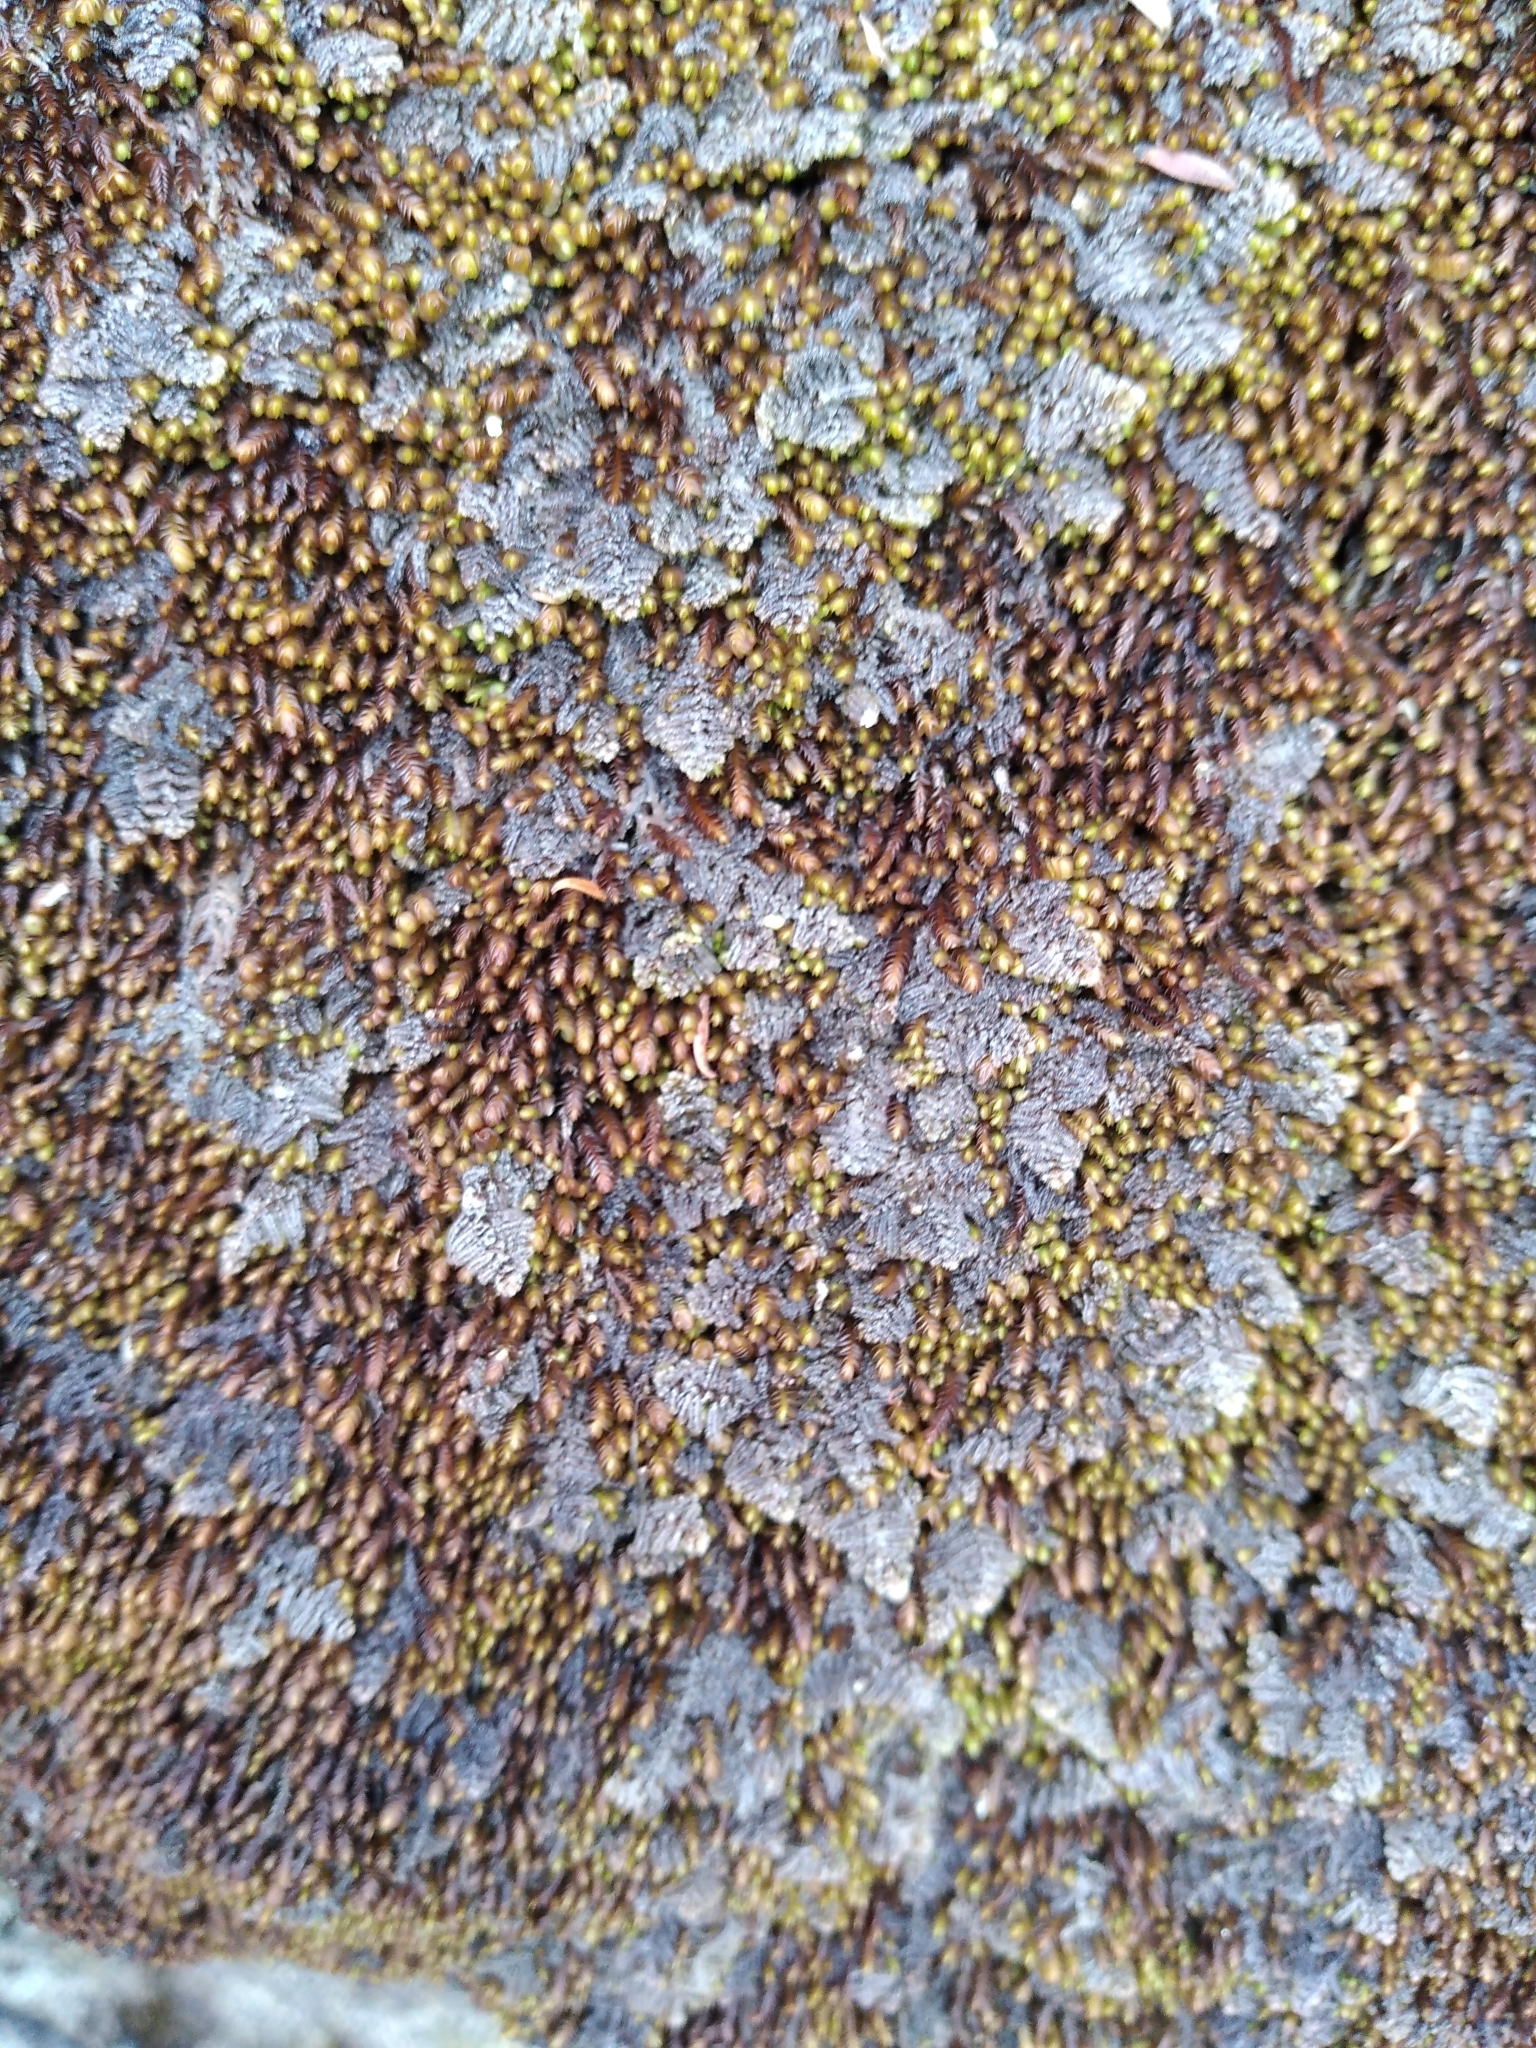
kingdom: Plantae
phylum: Marchantiophyta
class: Jungermanniopsida
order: Ptilidiales
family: Herzogianthaceae
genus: Herzogianthus
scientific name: Herzogianthus vaginatus
